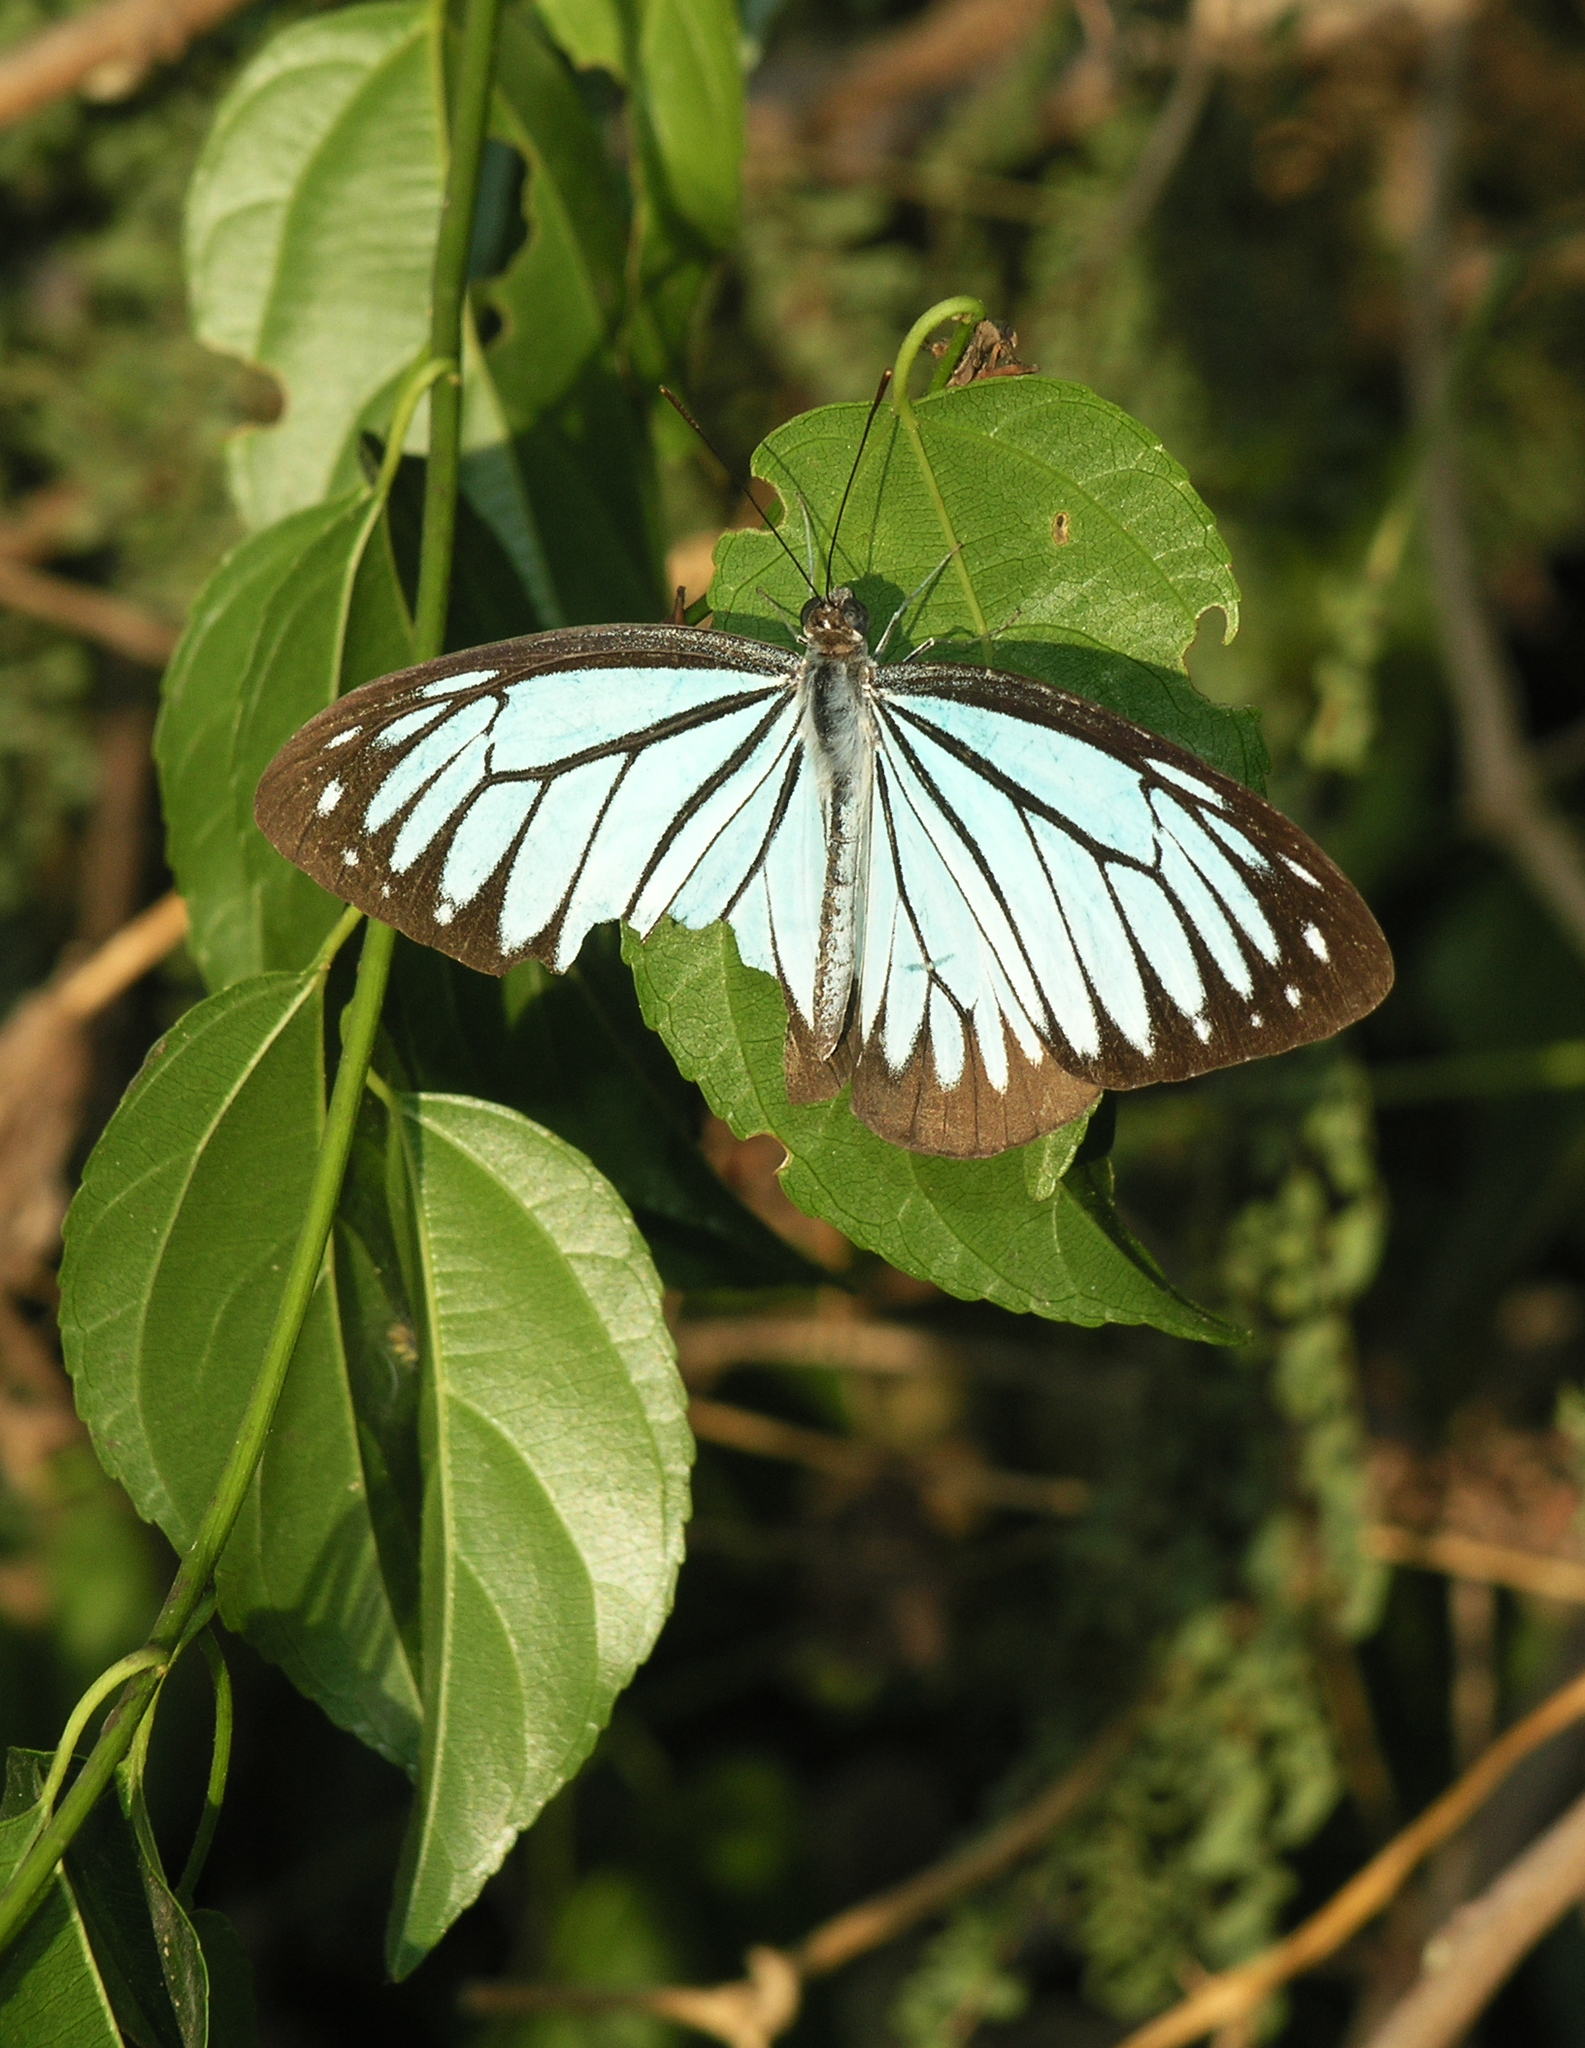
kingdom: Animalia
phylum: Arthropoda
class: Insecta
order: Lepidoptera
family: Pieridae
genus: Pareronia
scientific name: Pareronia hippia
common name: Indian wanderer
